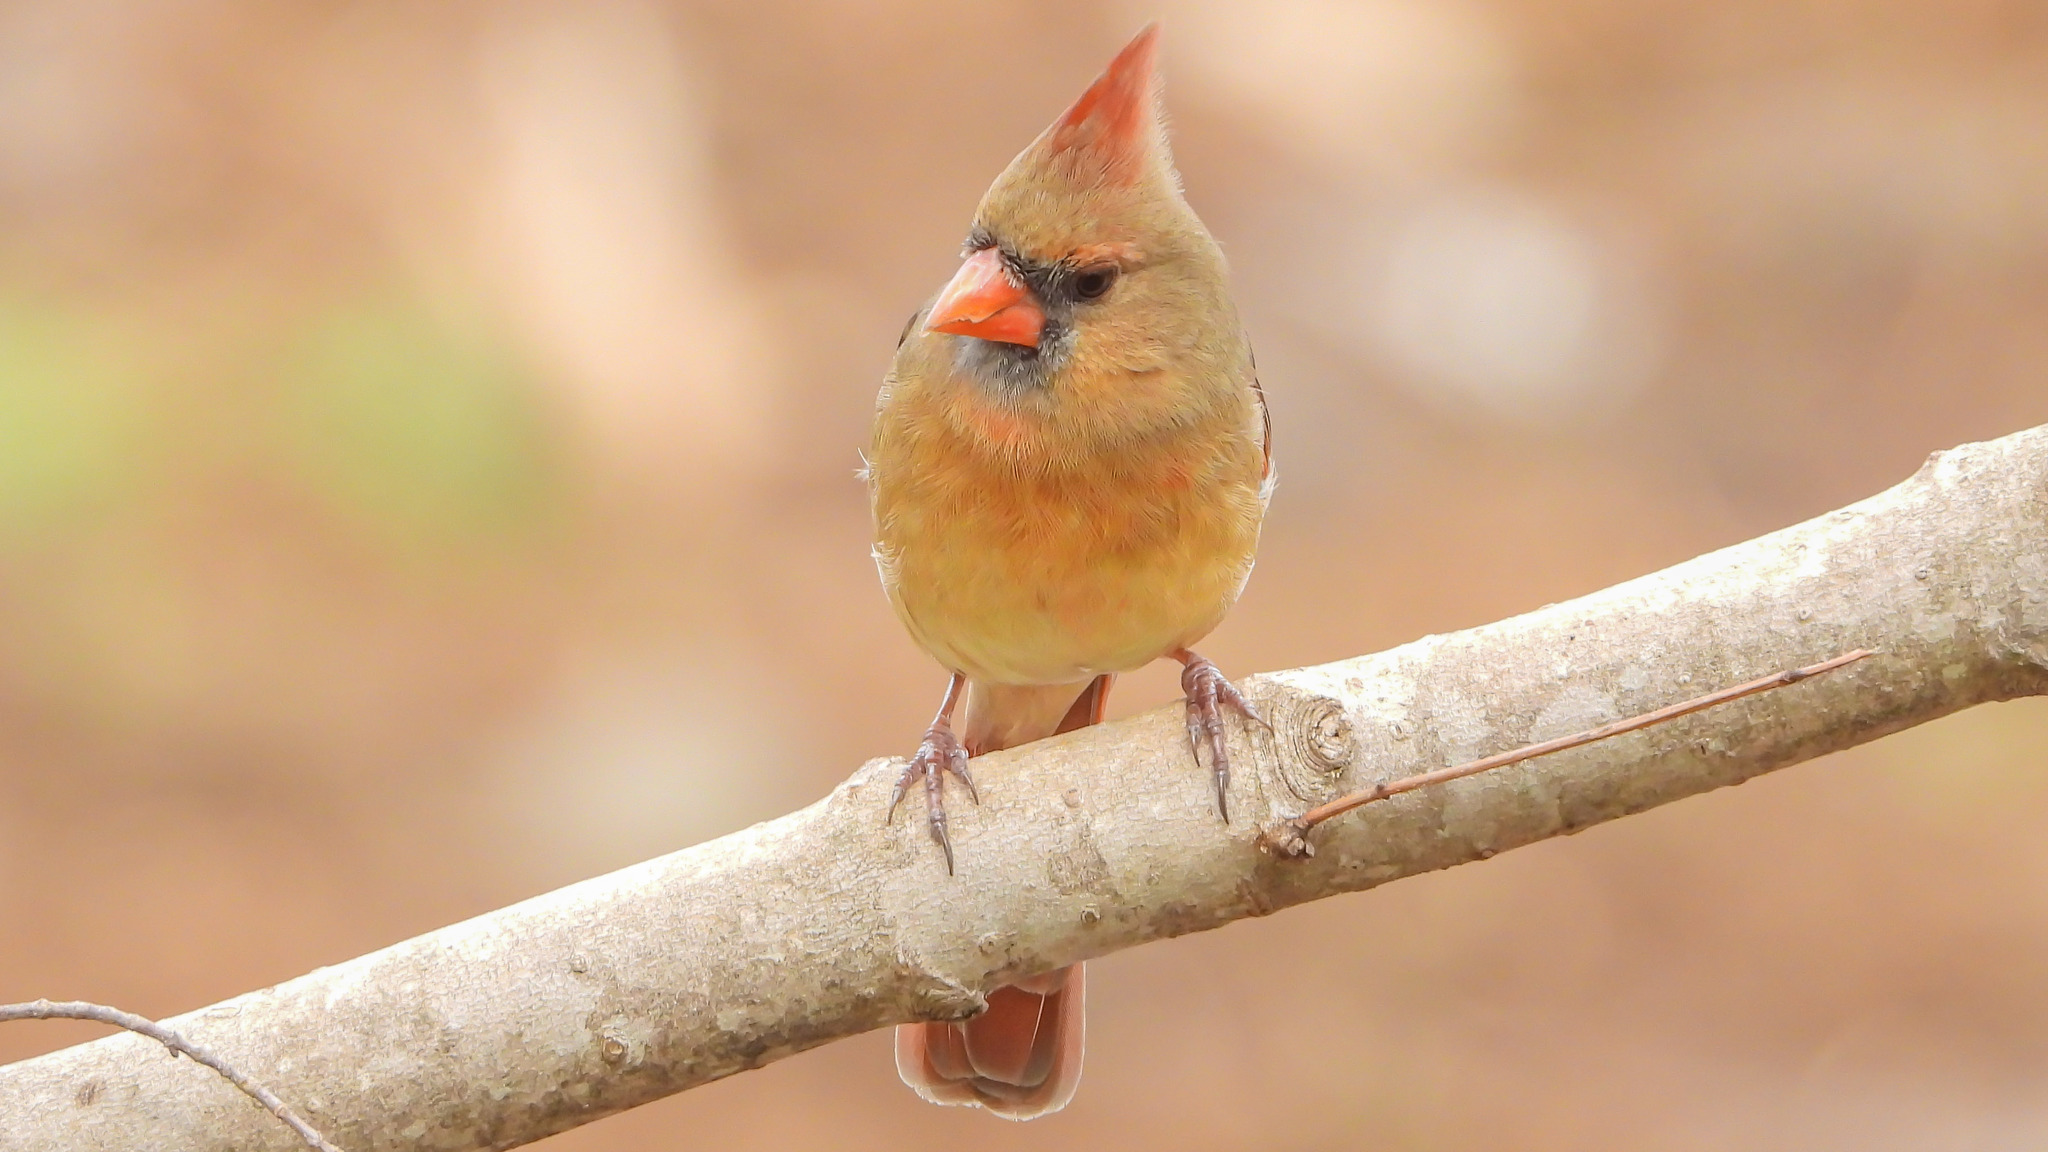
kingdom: Animalia
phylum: Chordata
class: Aves
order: Passeriformes
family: Cardinalidae
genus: Cardinalis
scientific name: Cardinalis cardinalis
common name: Northern cardinal
